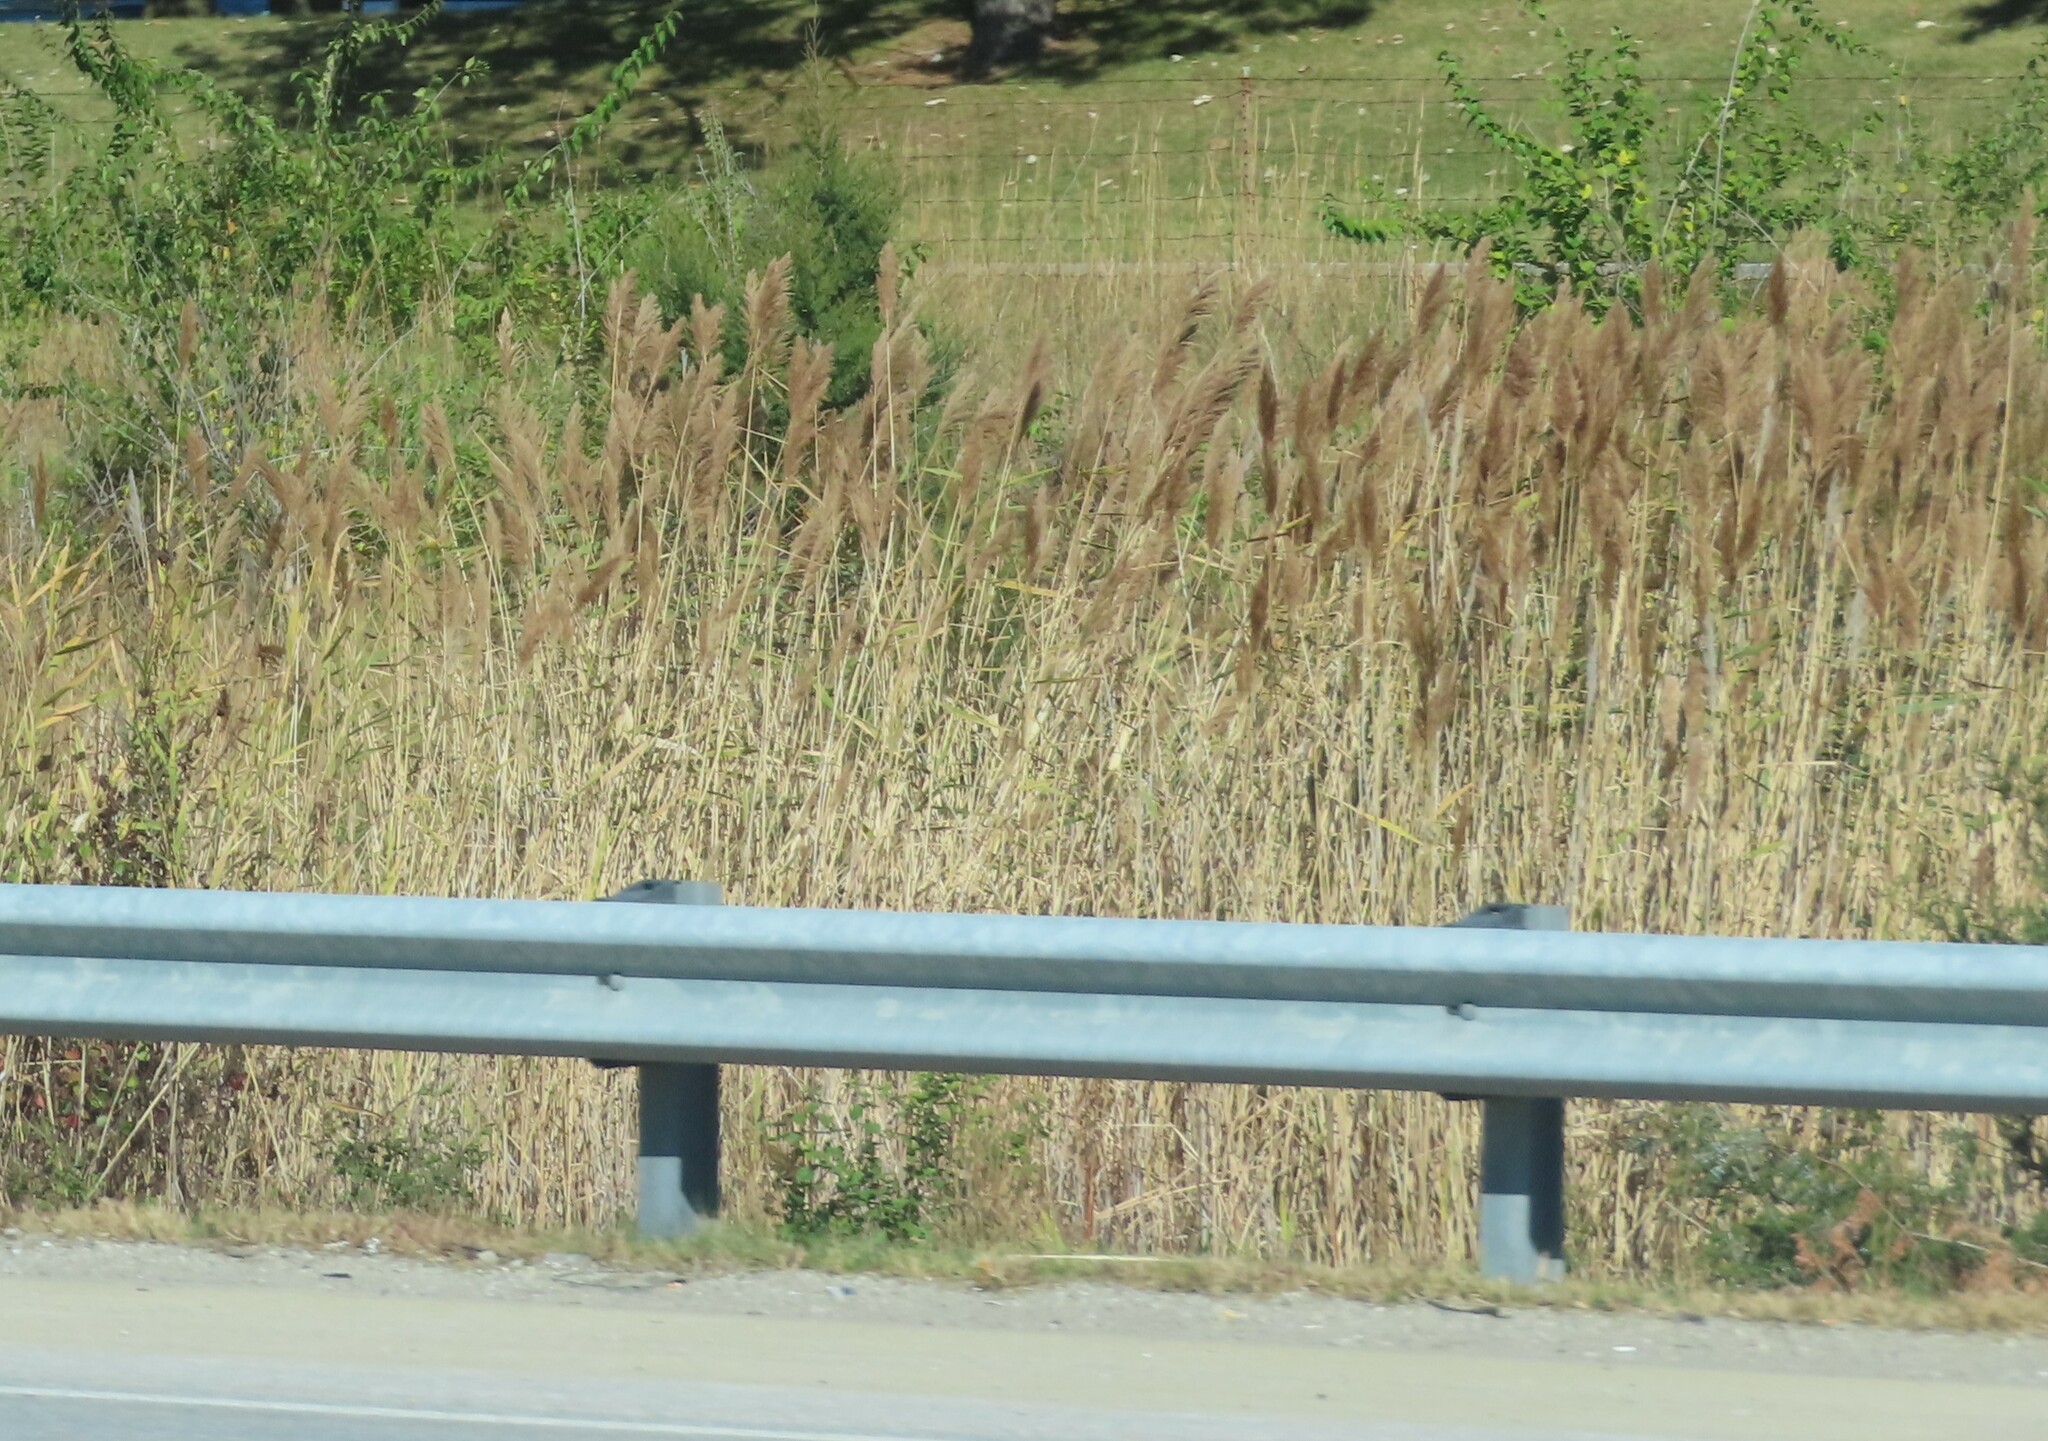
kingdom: Plantae
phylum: Tracheophyta
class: Liliopsida
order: Poales
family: Poaceae
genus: Phragmites
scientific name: Phragmites australis
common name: Common reed
